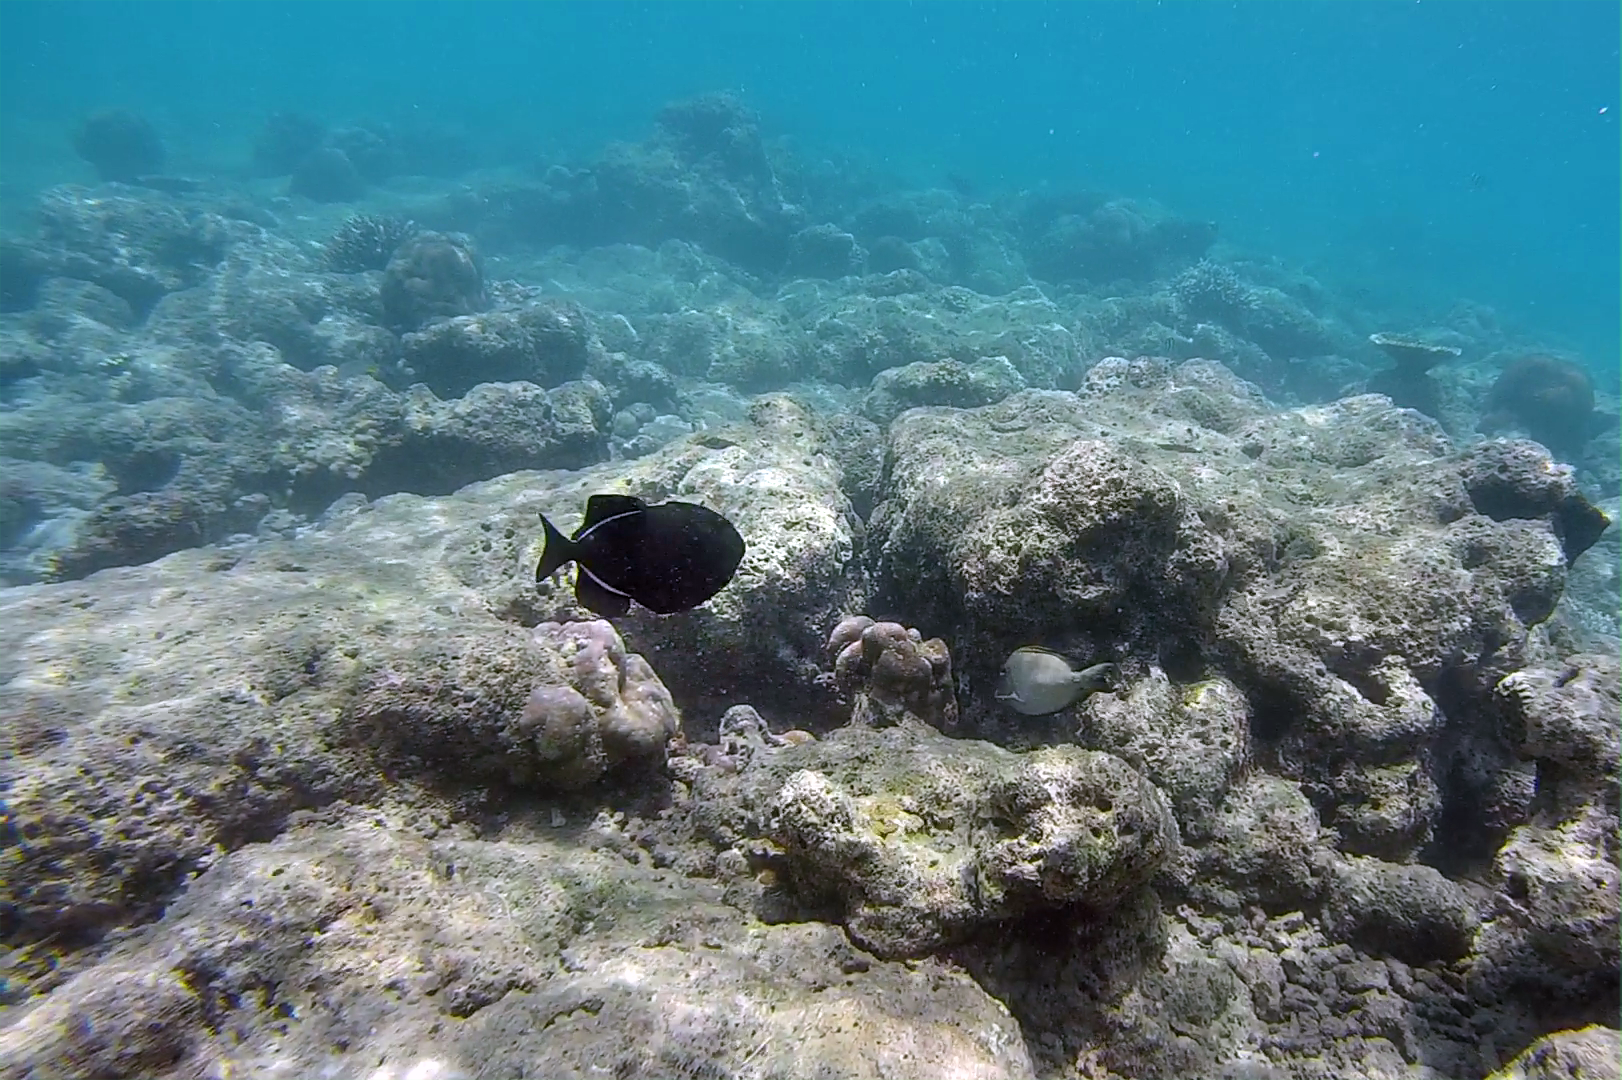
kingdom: Animalia
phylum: Chordata
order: Tetraodontiformes
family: Balistidae
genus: Melichthys
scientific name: Melichthys indicus
